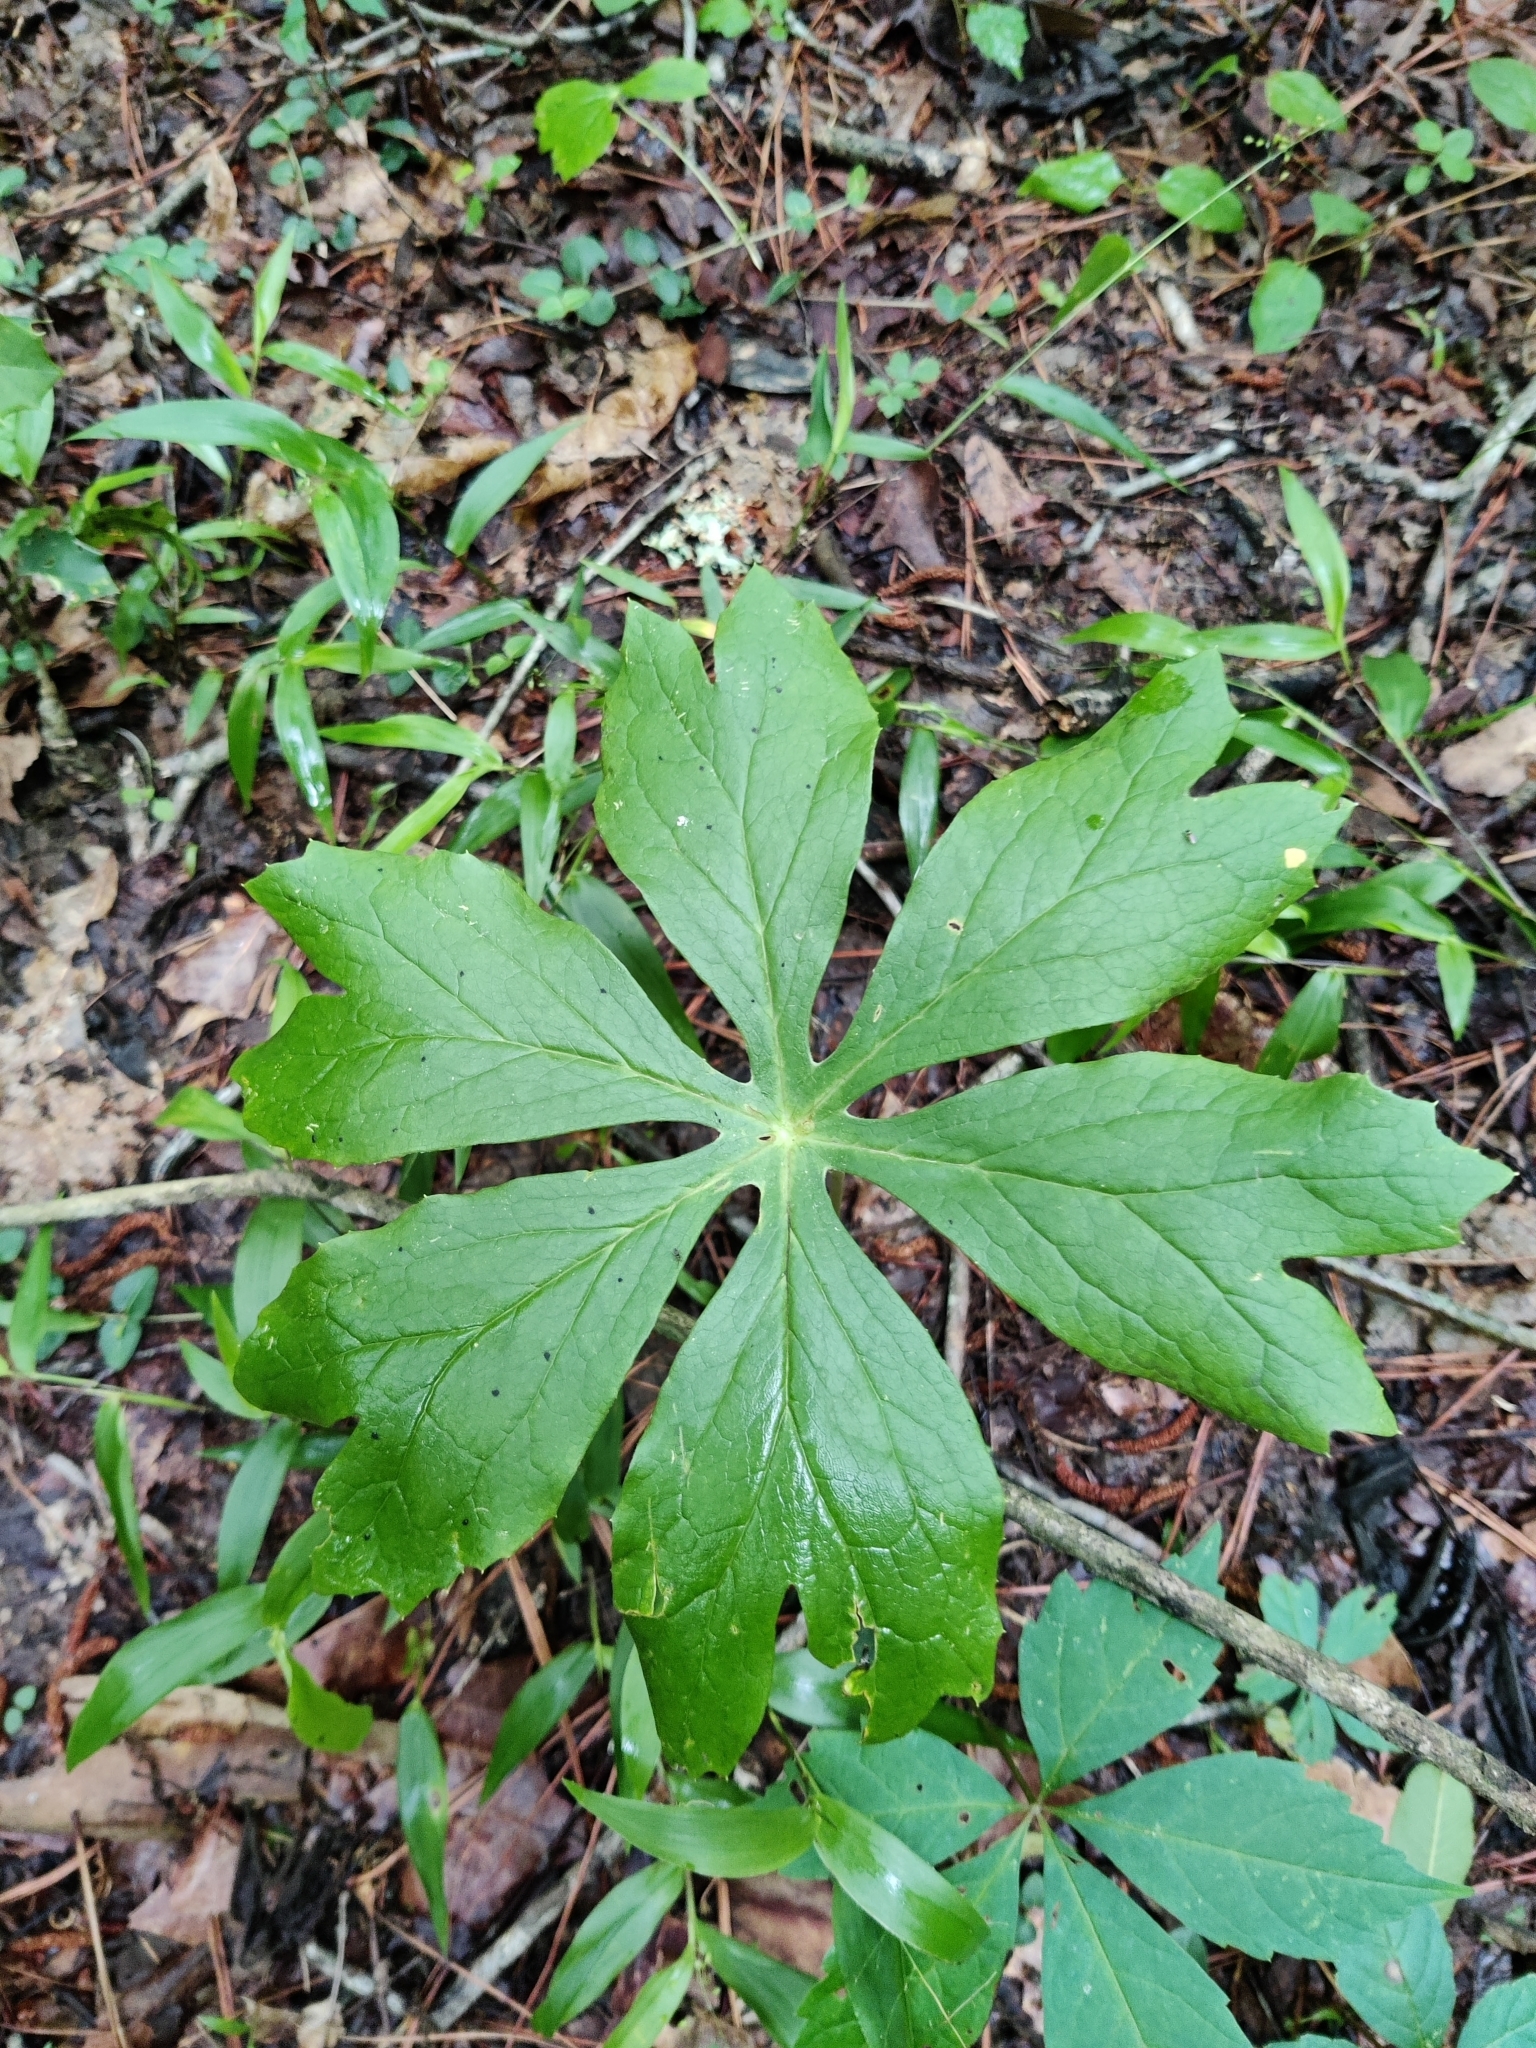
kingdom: Plantae
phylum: Tracheophyta
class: Magnoliopsida
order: Ranunculales
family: Berberidaceae
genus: Podophyllum
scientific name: Podophyllum peltatum
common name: Wild mandrake
